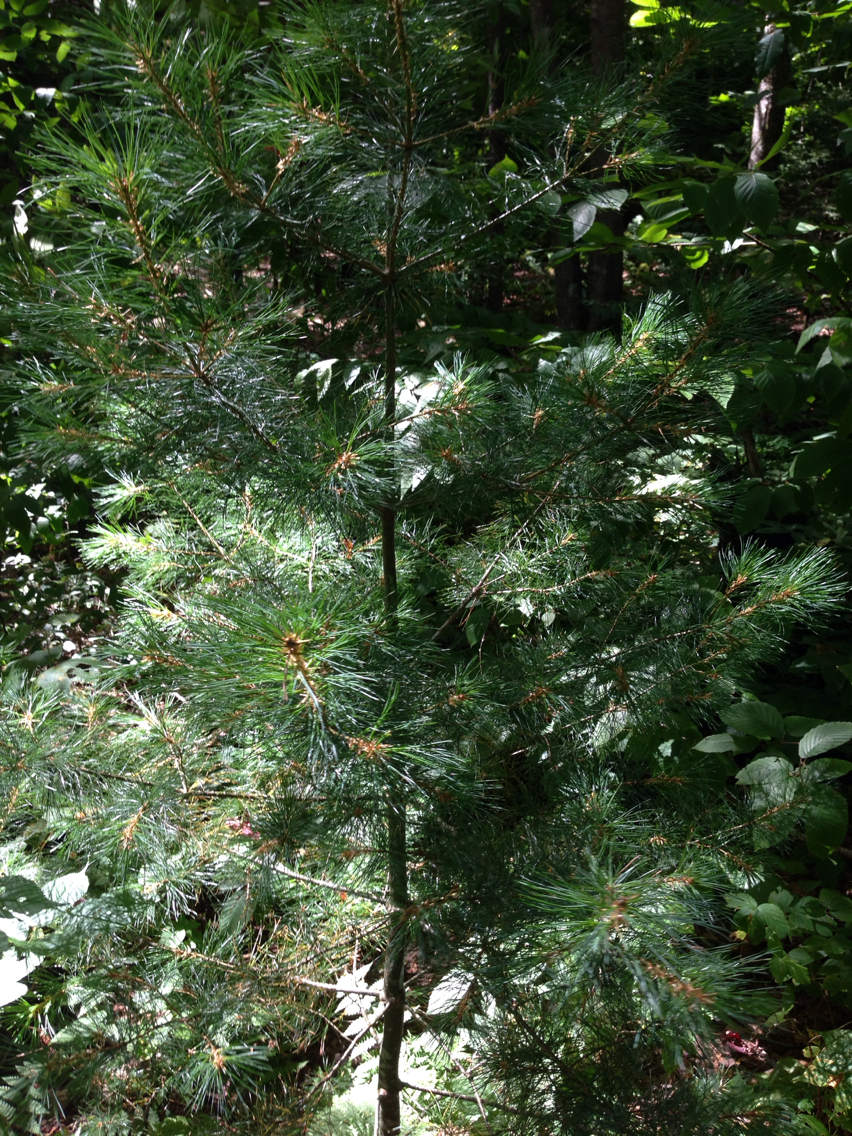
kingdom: Plantae
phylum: Tracheophyta
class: Pinopsida
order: Pinales
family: Pinaceae
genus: Pinus
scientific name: Pinus strobus
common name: Weymouth pine
